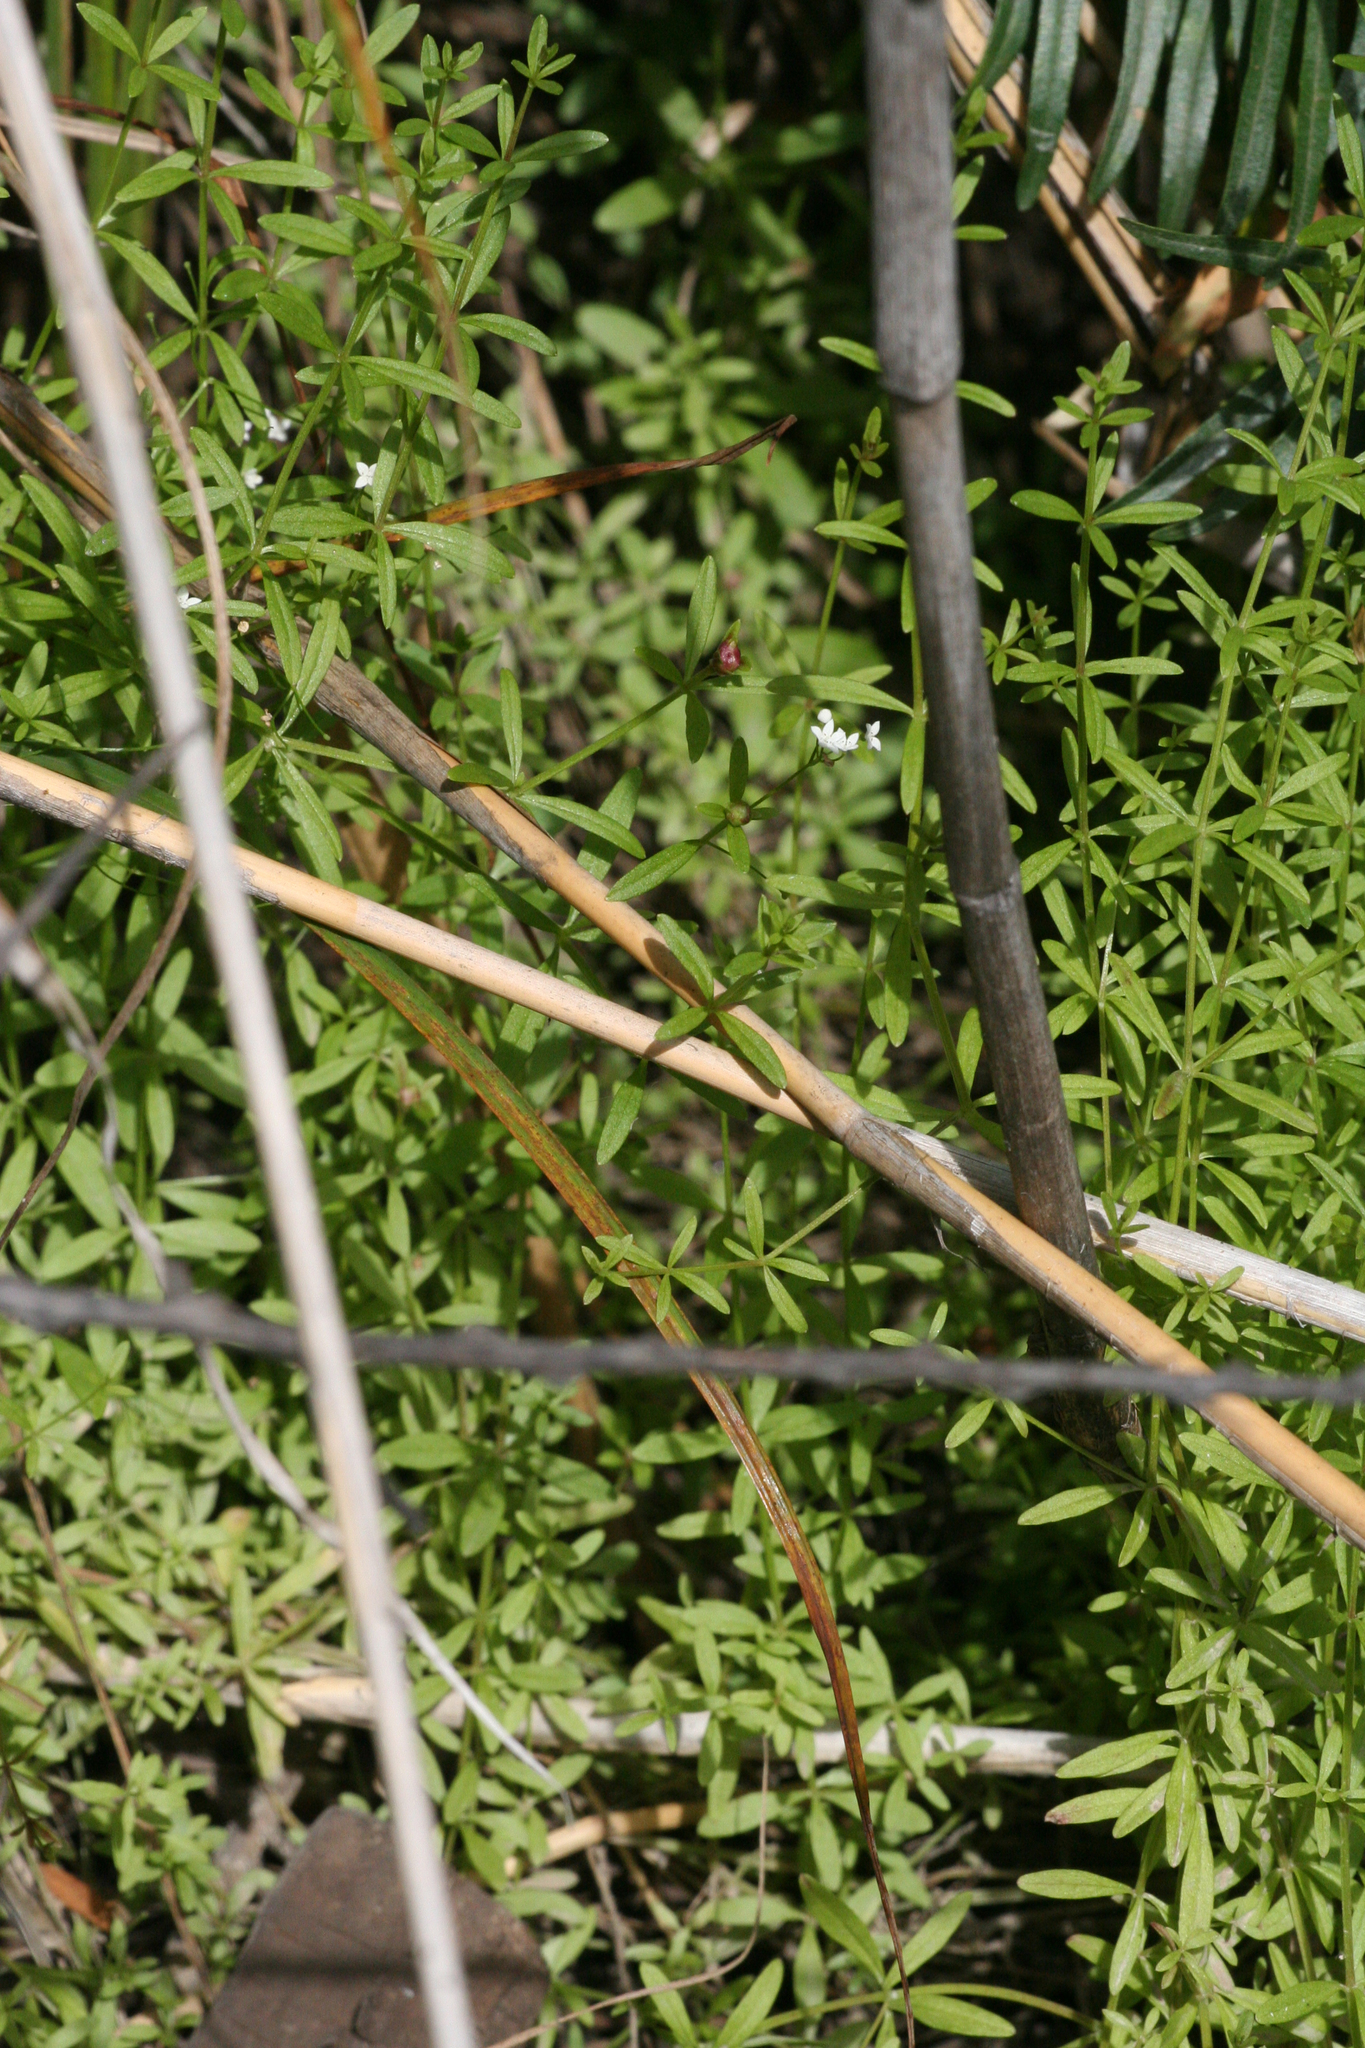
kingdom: Plantae
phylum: Tracheophyta
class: Magnoliopsida
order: Gentianales
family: Rubiaceae
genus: Galium
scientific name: Galium palustre
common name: Common marsh-bedstraw
